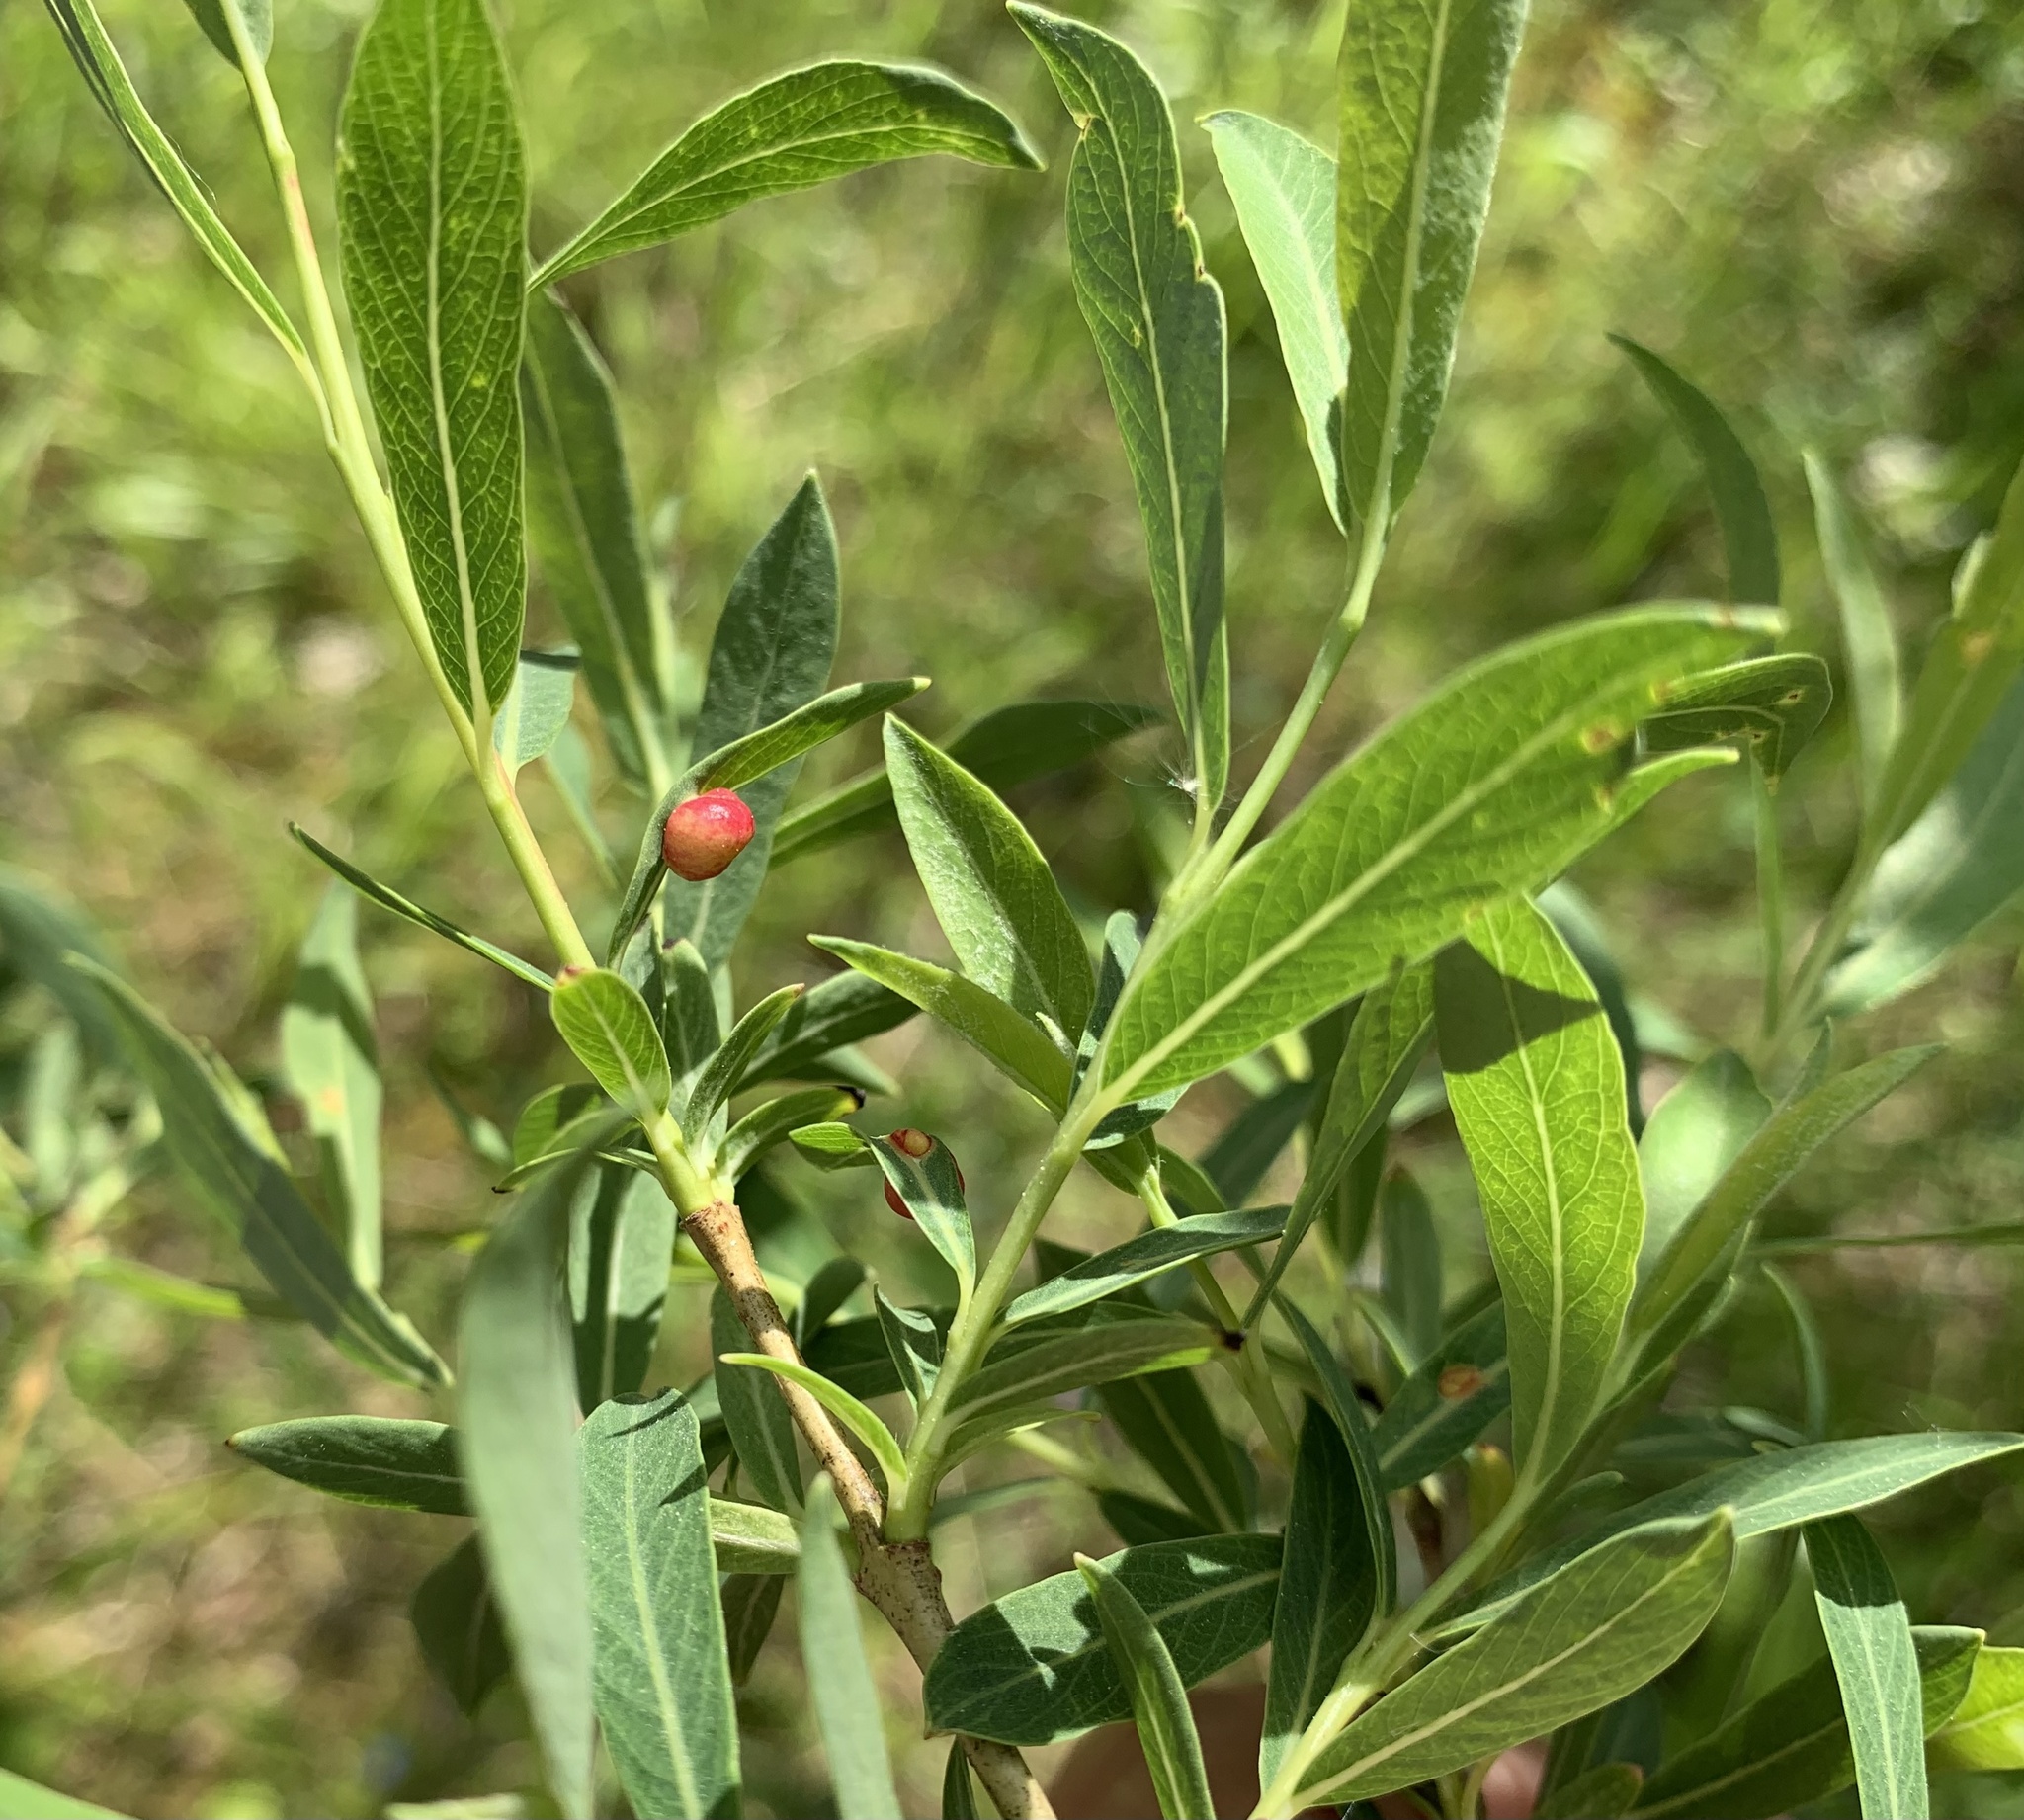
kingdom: Plantae
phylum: Tracheophyta
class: Magnoliopsida
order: Malpighiales
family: Salicaceae
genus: Salix
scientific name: Salix purpurea
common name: Purple willow
